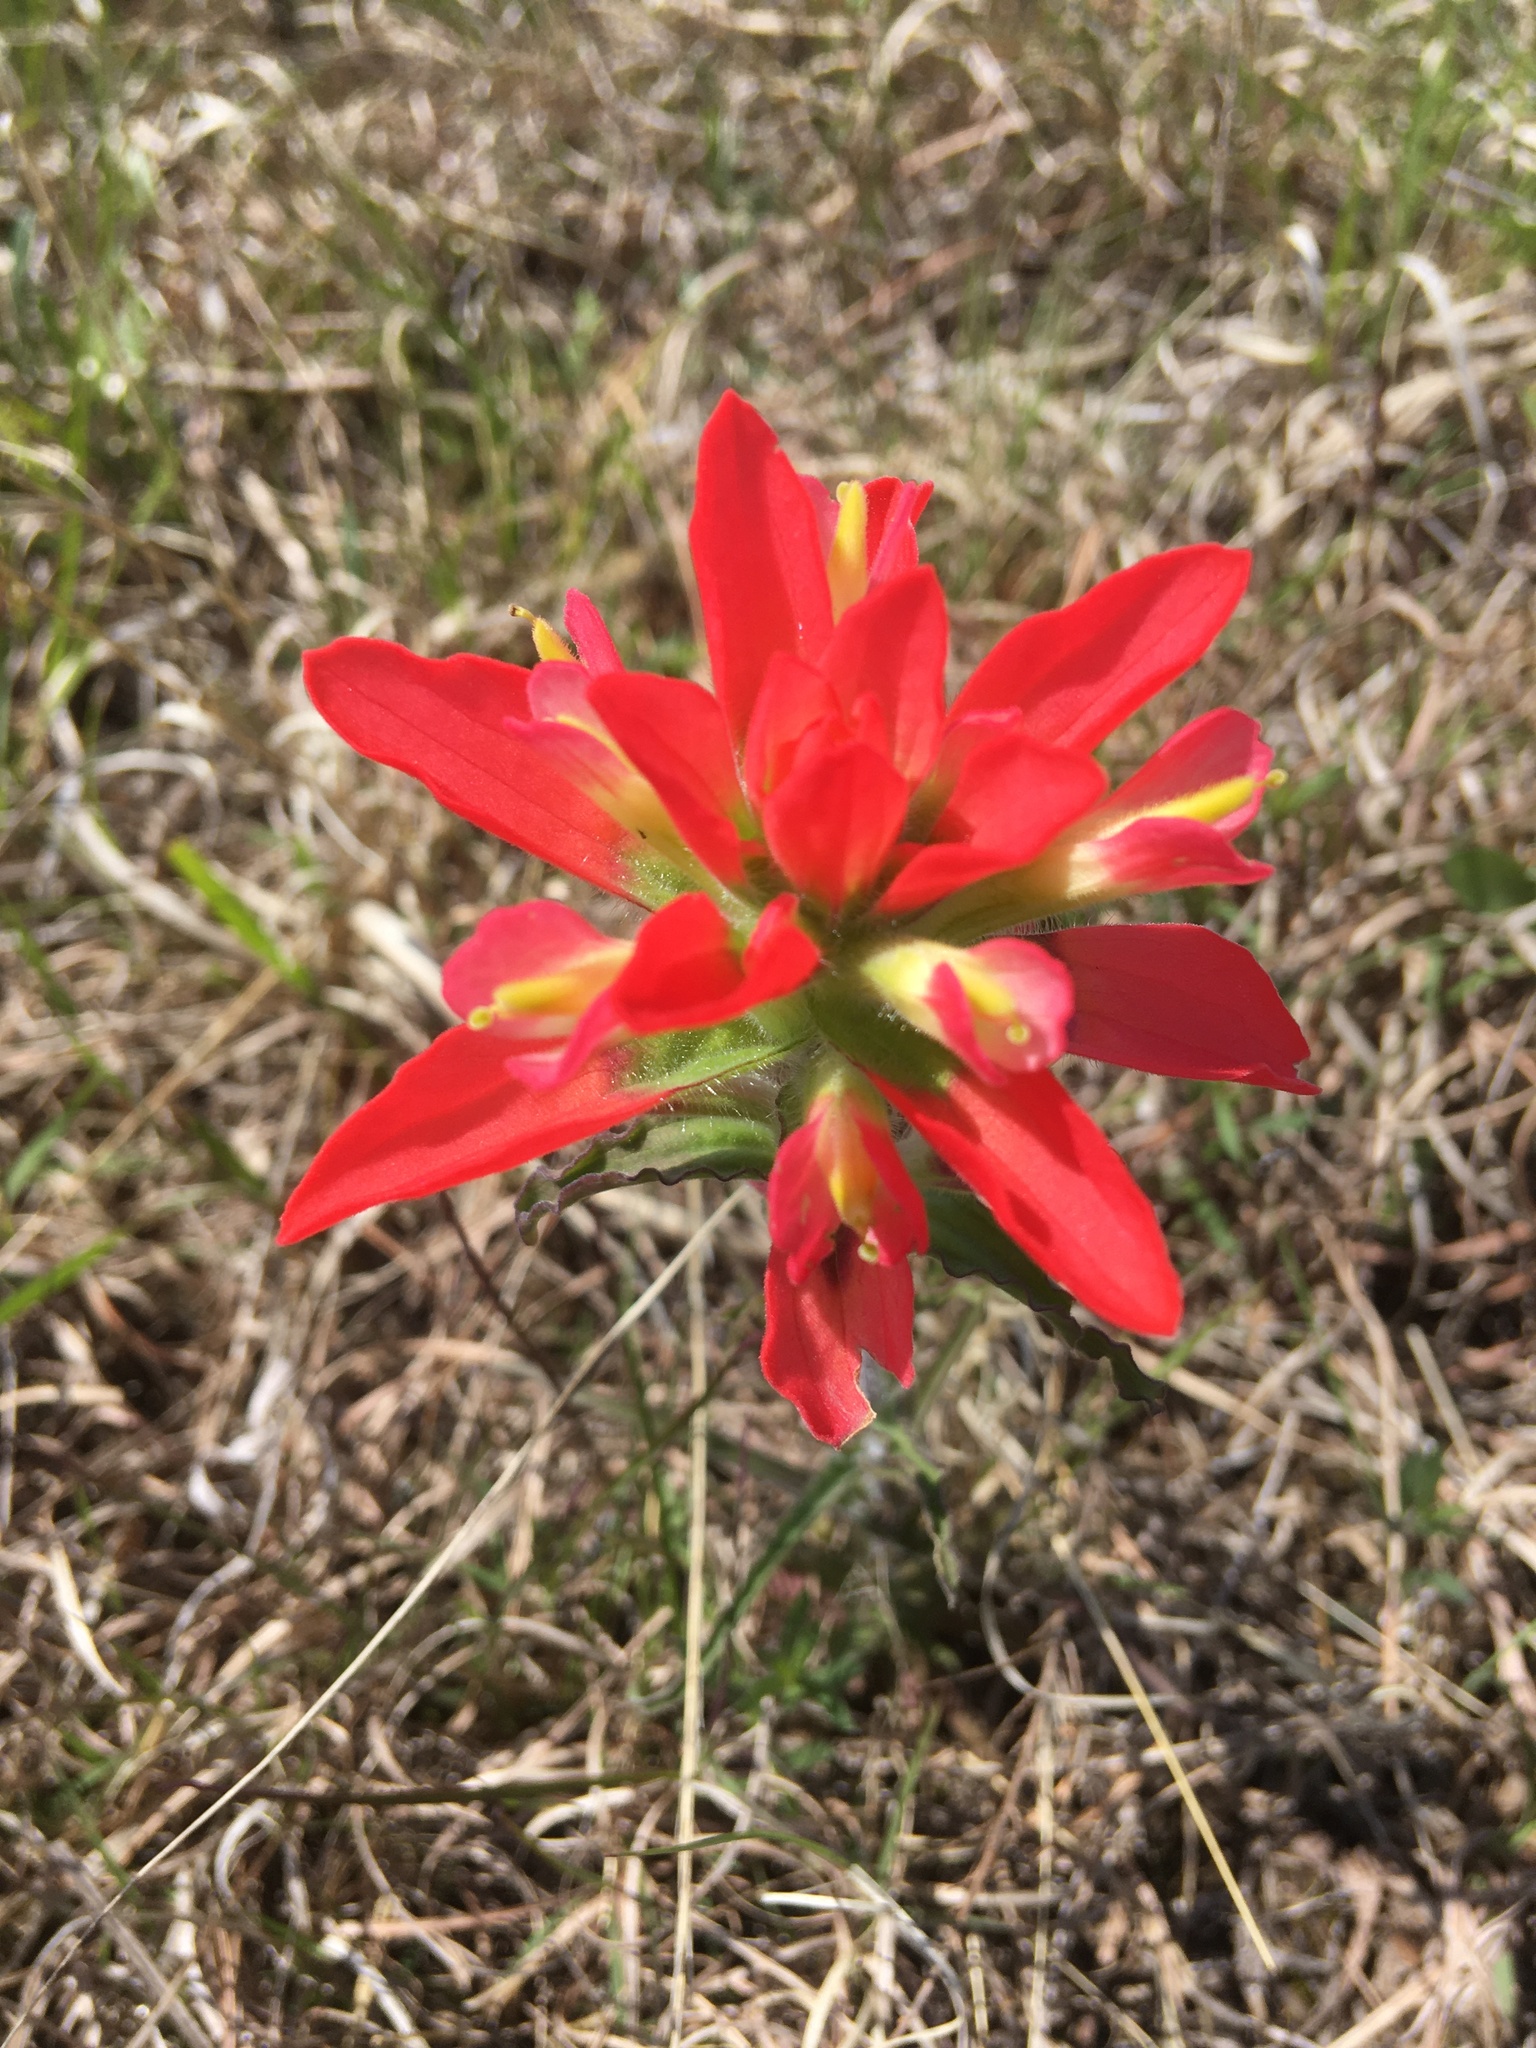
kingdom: Plantae
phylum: Tracheophyta
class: Magnoliopsida
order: Lamiales
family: Orobanchaceae
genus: Castilleja
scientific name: Castilleja indivisa
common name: Texas paintbrush
